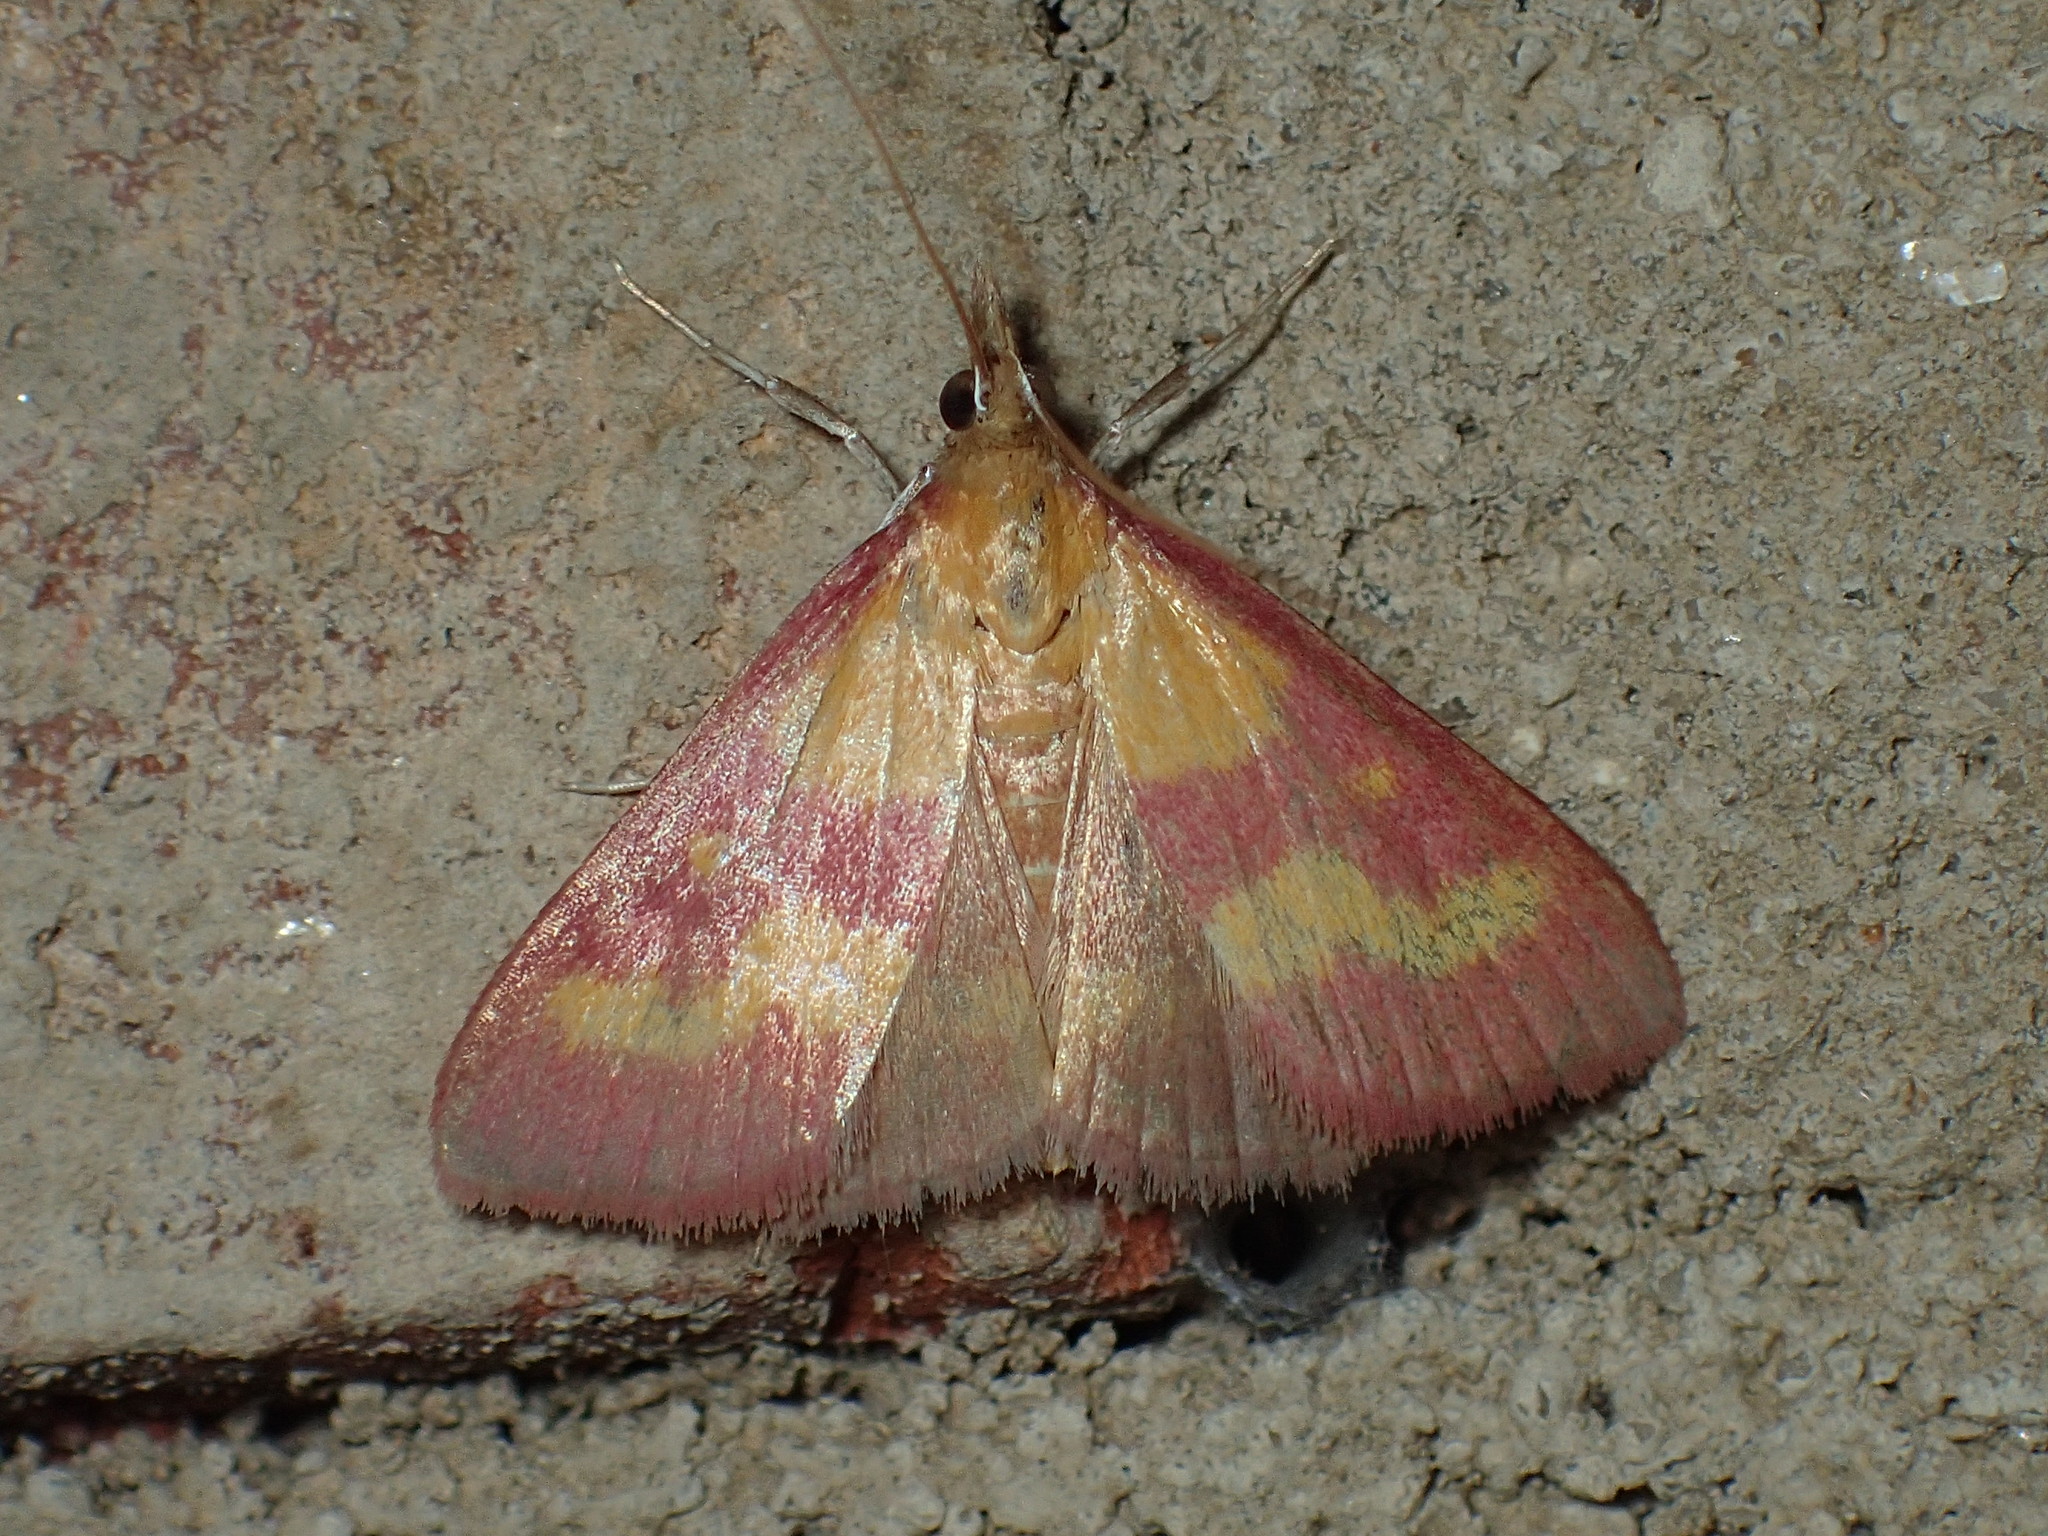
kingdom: Animalia
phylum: Arthropoda
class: Insecta
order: Lepidoptera
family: Crambidae
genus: Pyrausta
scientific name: Pyrausta laticlavia
